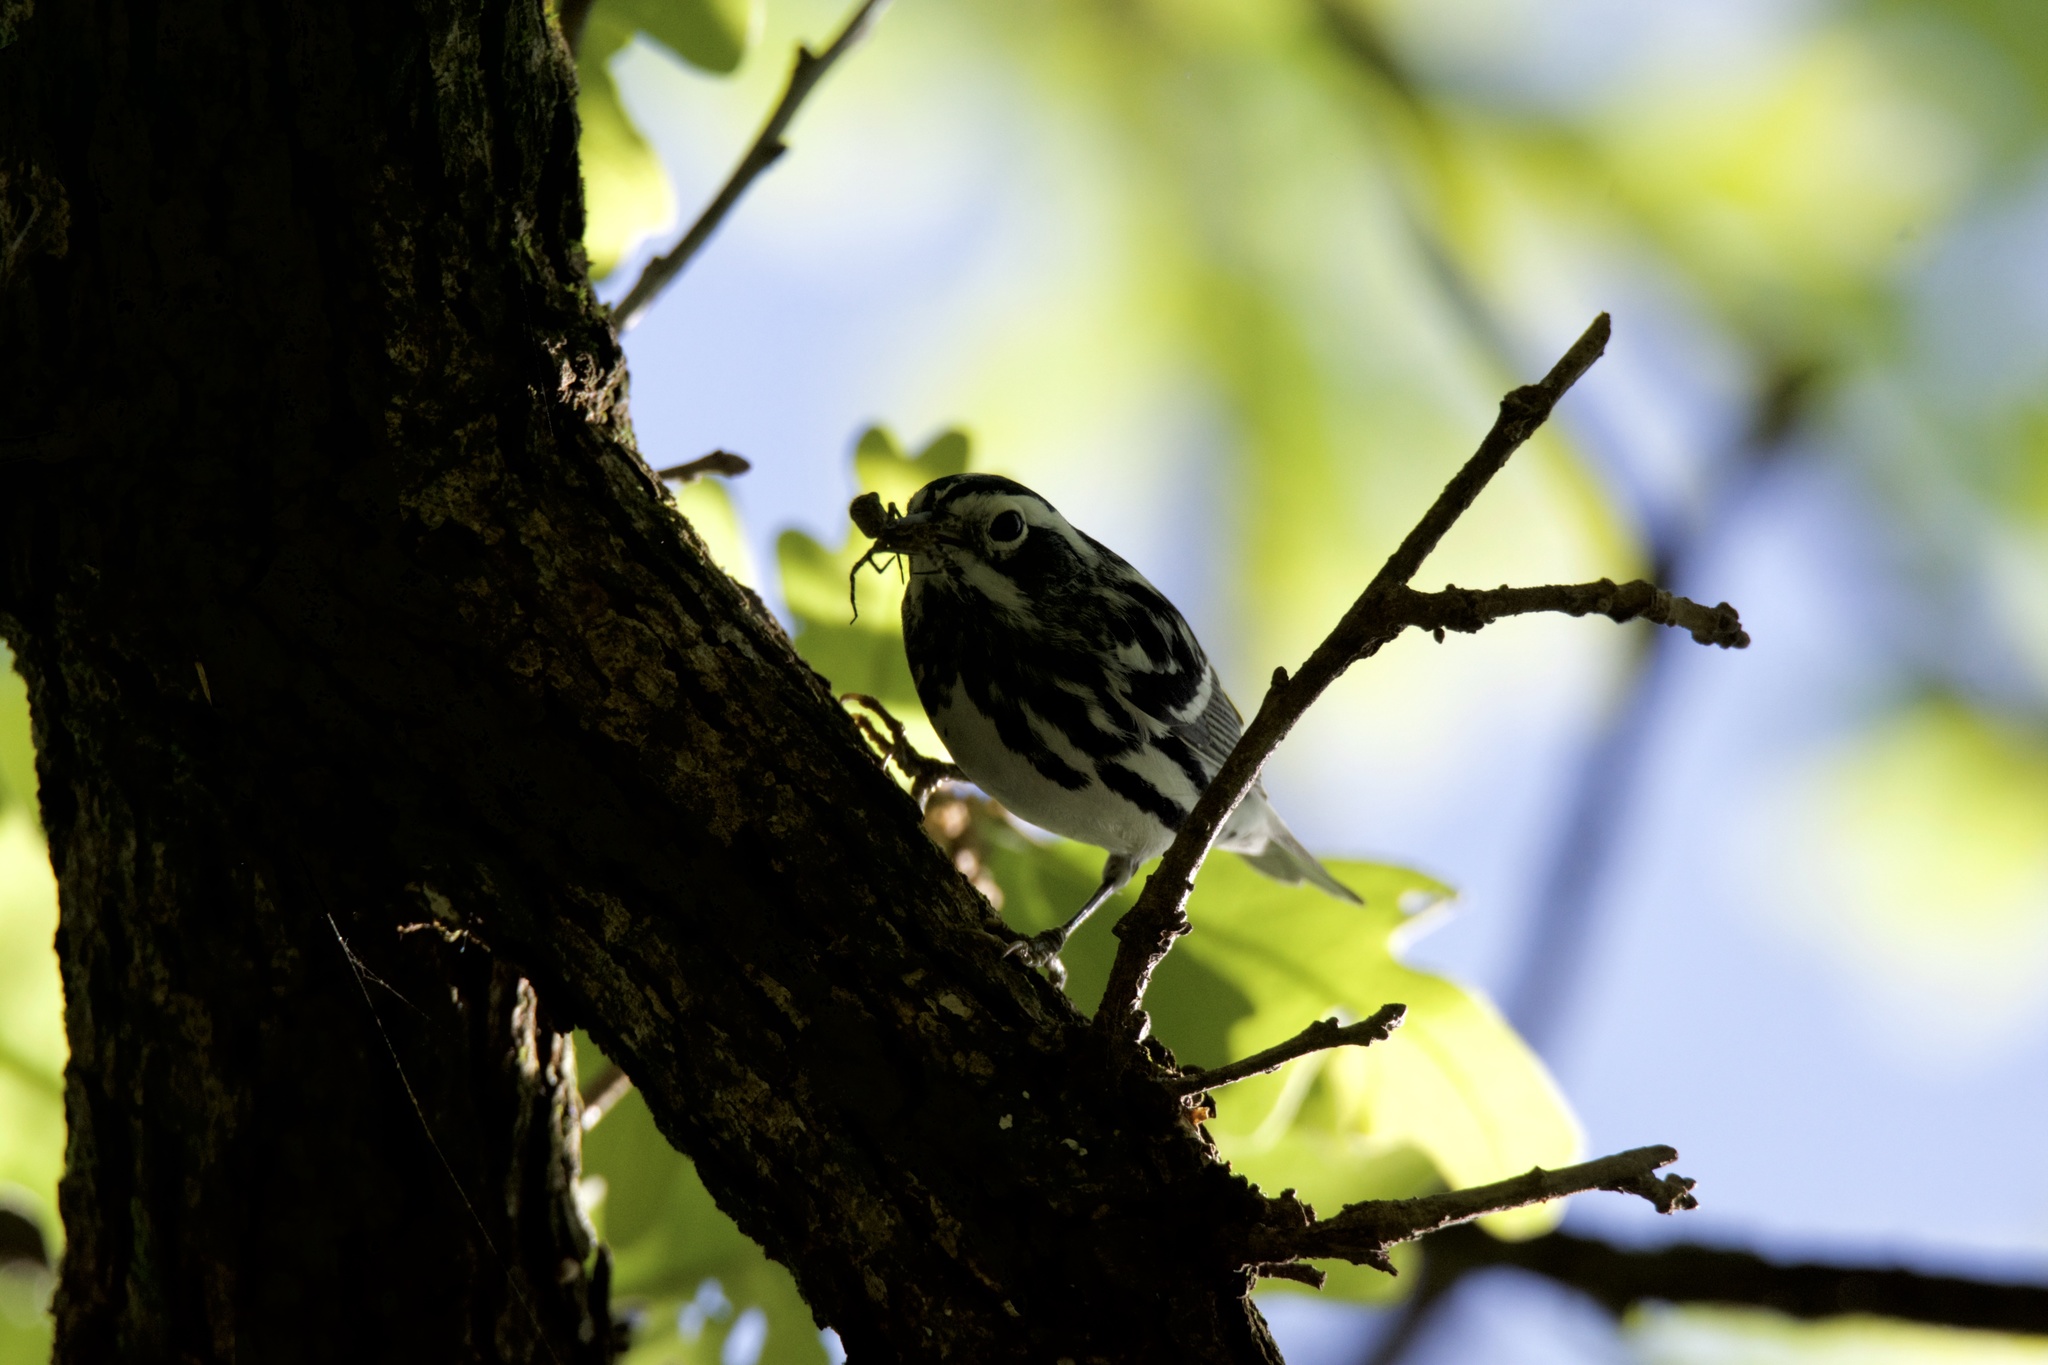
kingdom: Animalia
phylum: Chordata
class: Aves
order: Passeriformes
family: Parulidae
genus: Mniotilta
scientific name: Mniotilta varia
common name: Black-and-white warbler
